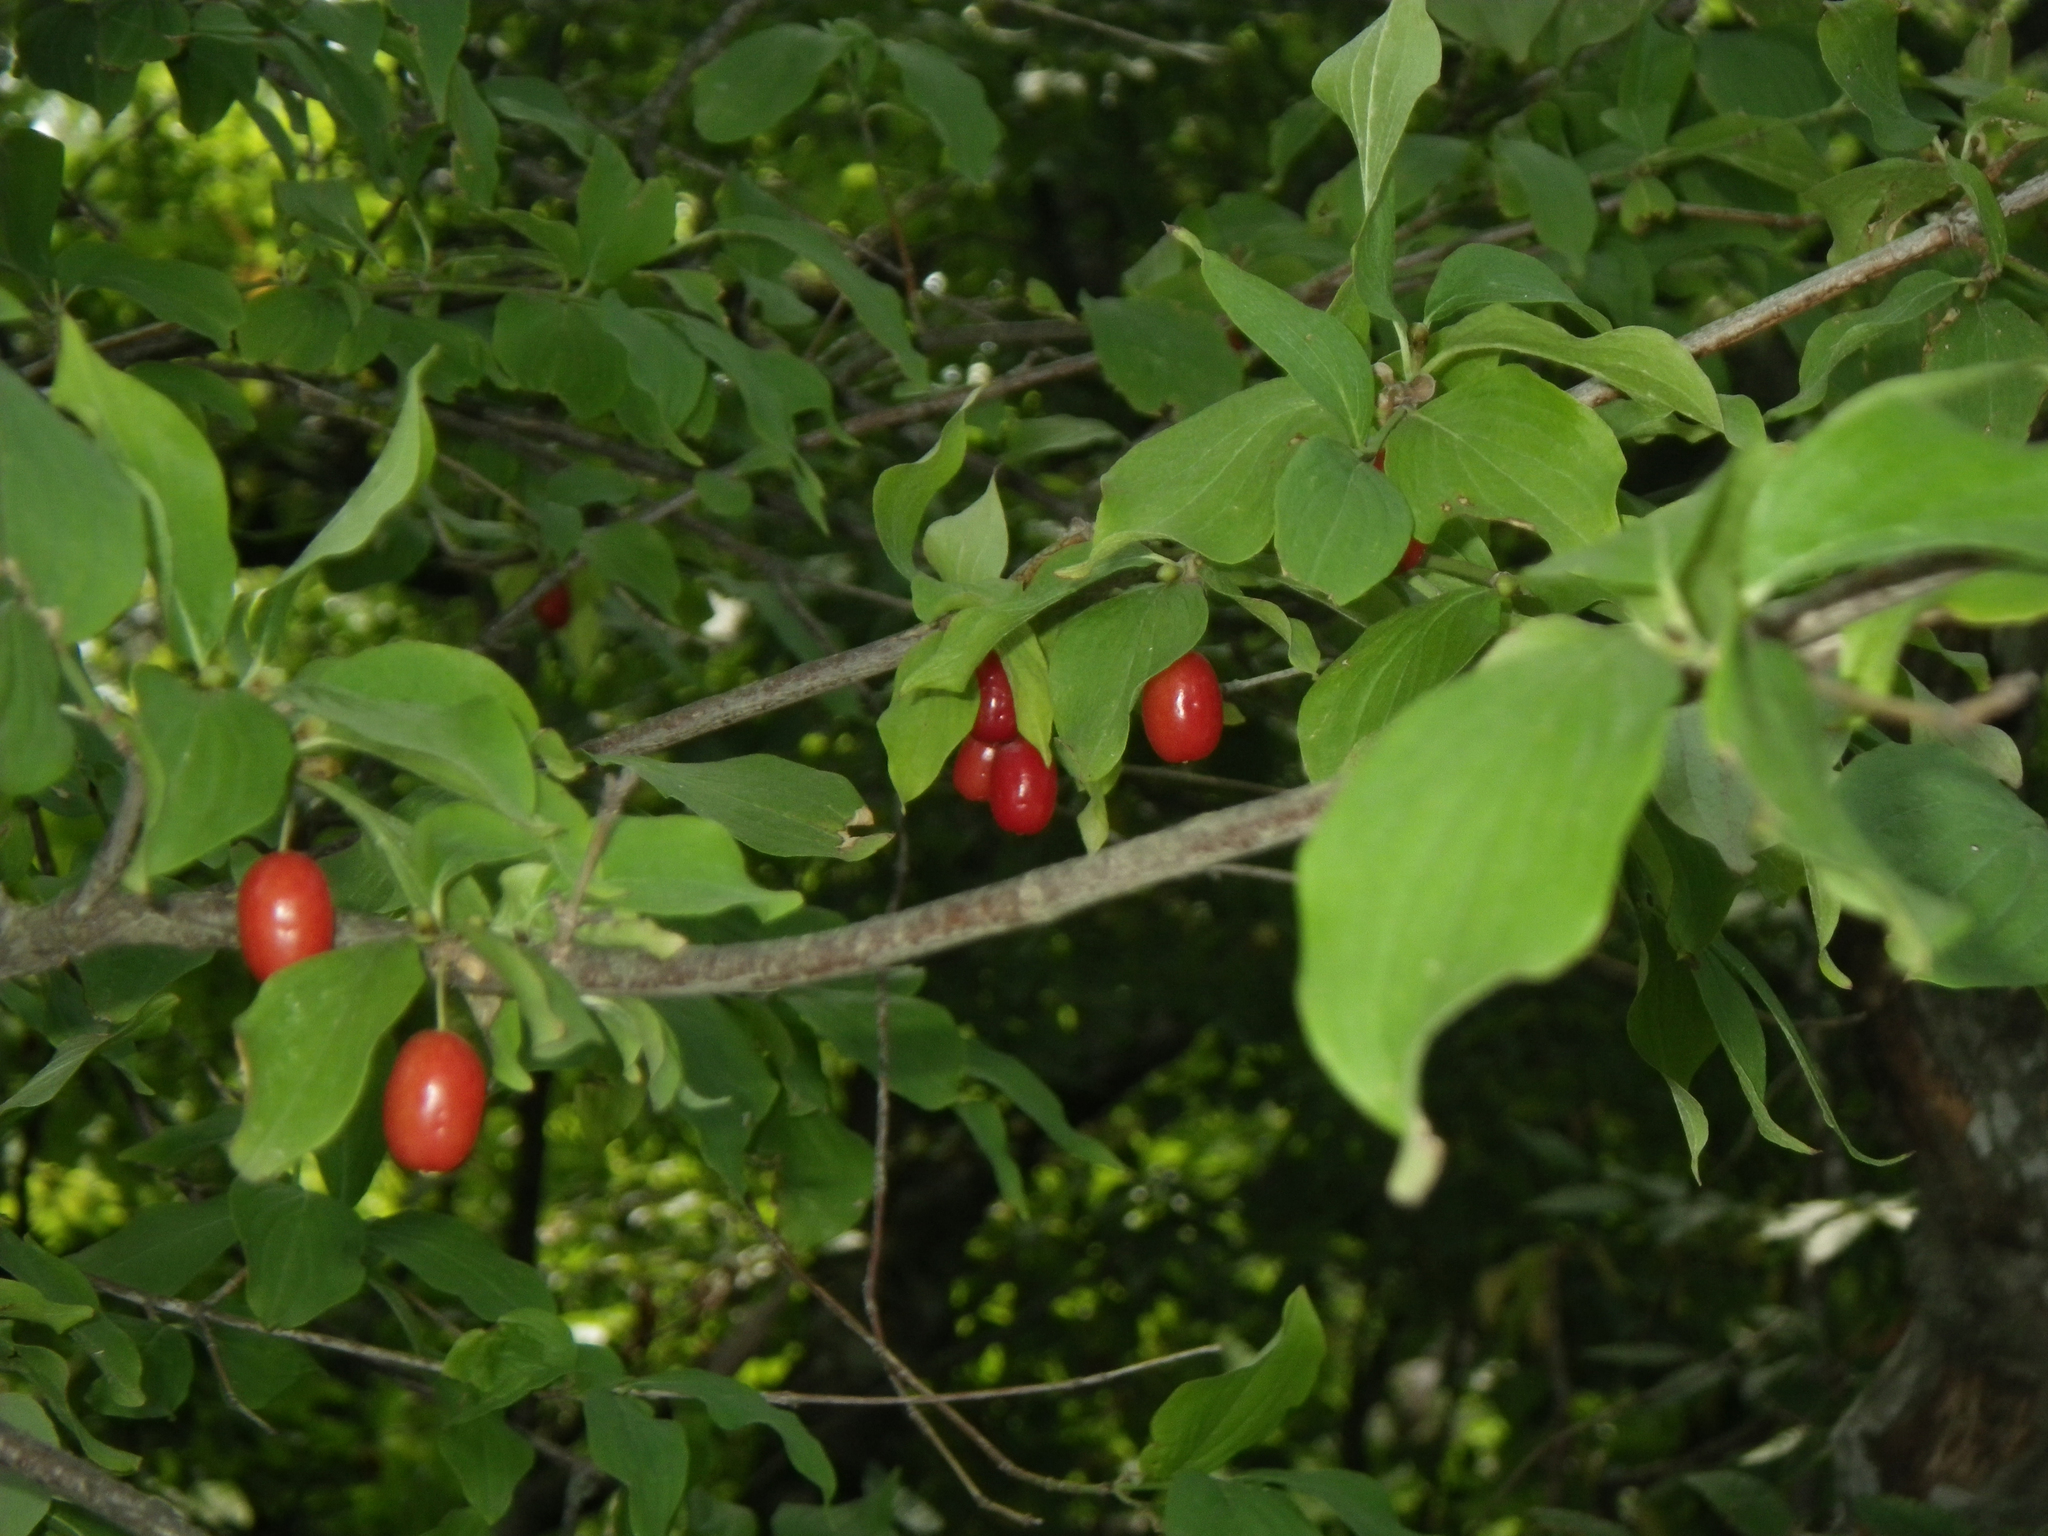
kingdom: Plantae
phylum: Tracheophyta
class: Magnoliopsida
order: Cornales
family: Cornaceae
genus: Cornus
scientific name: Cornus mas
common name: Cornelian-cherry
